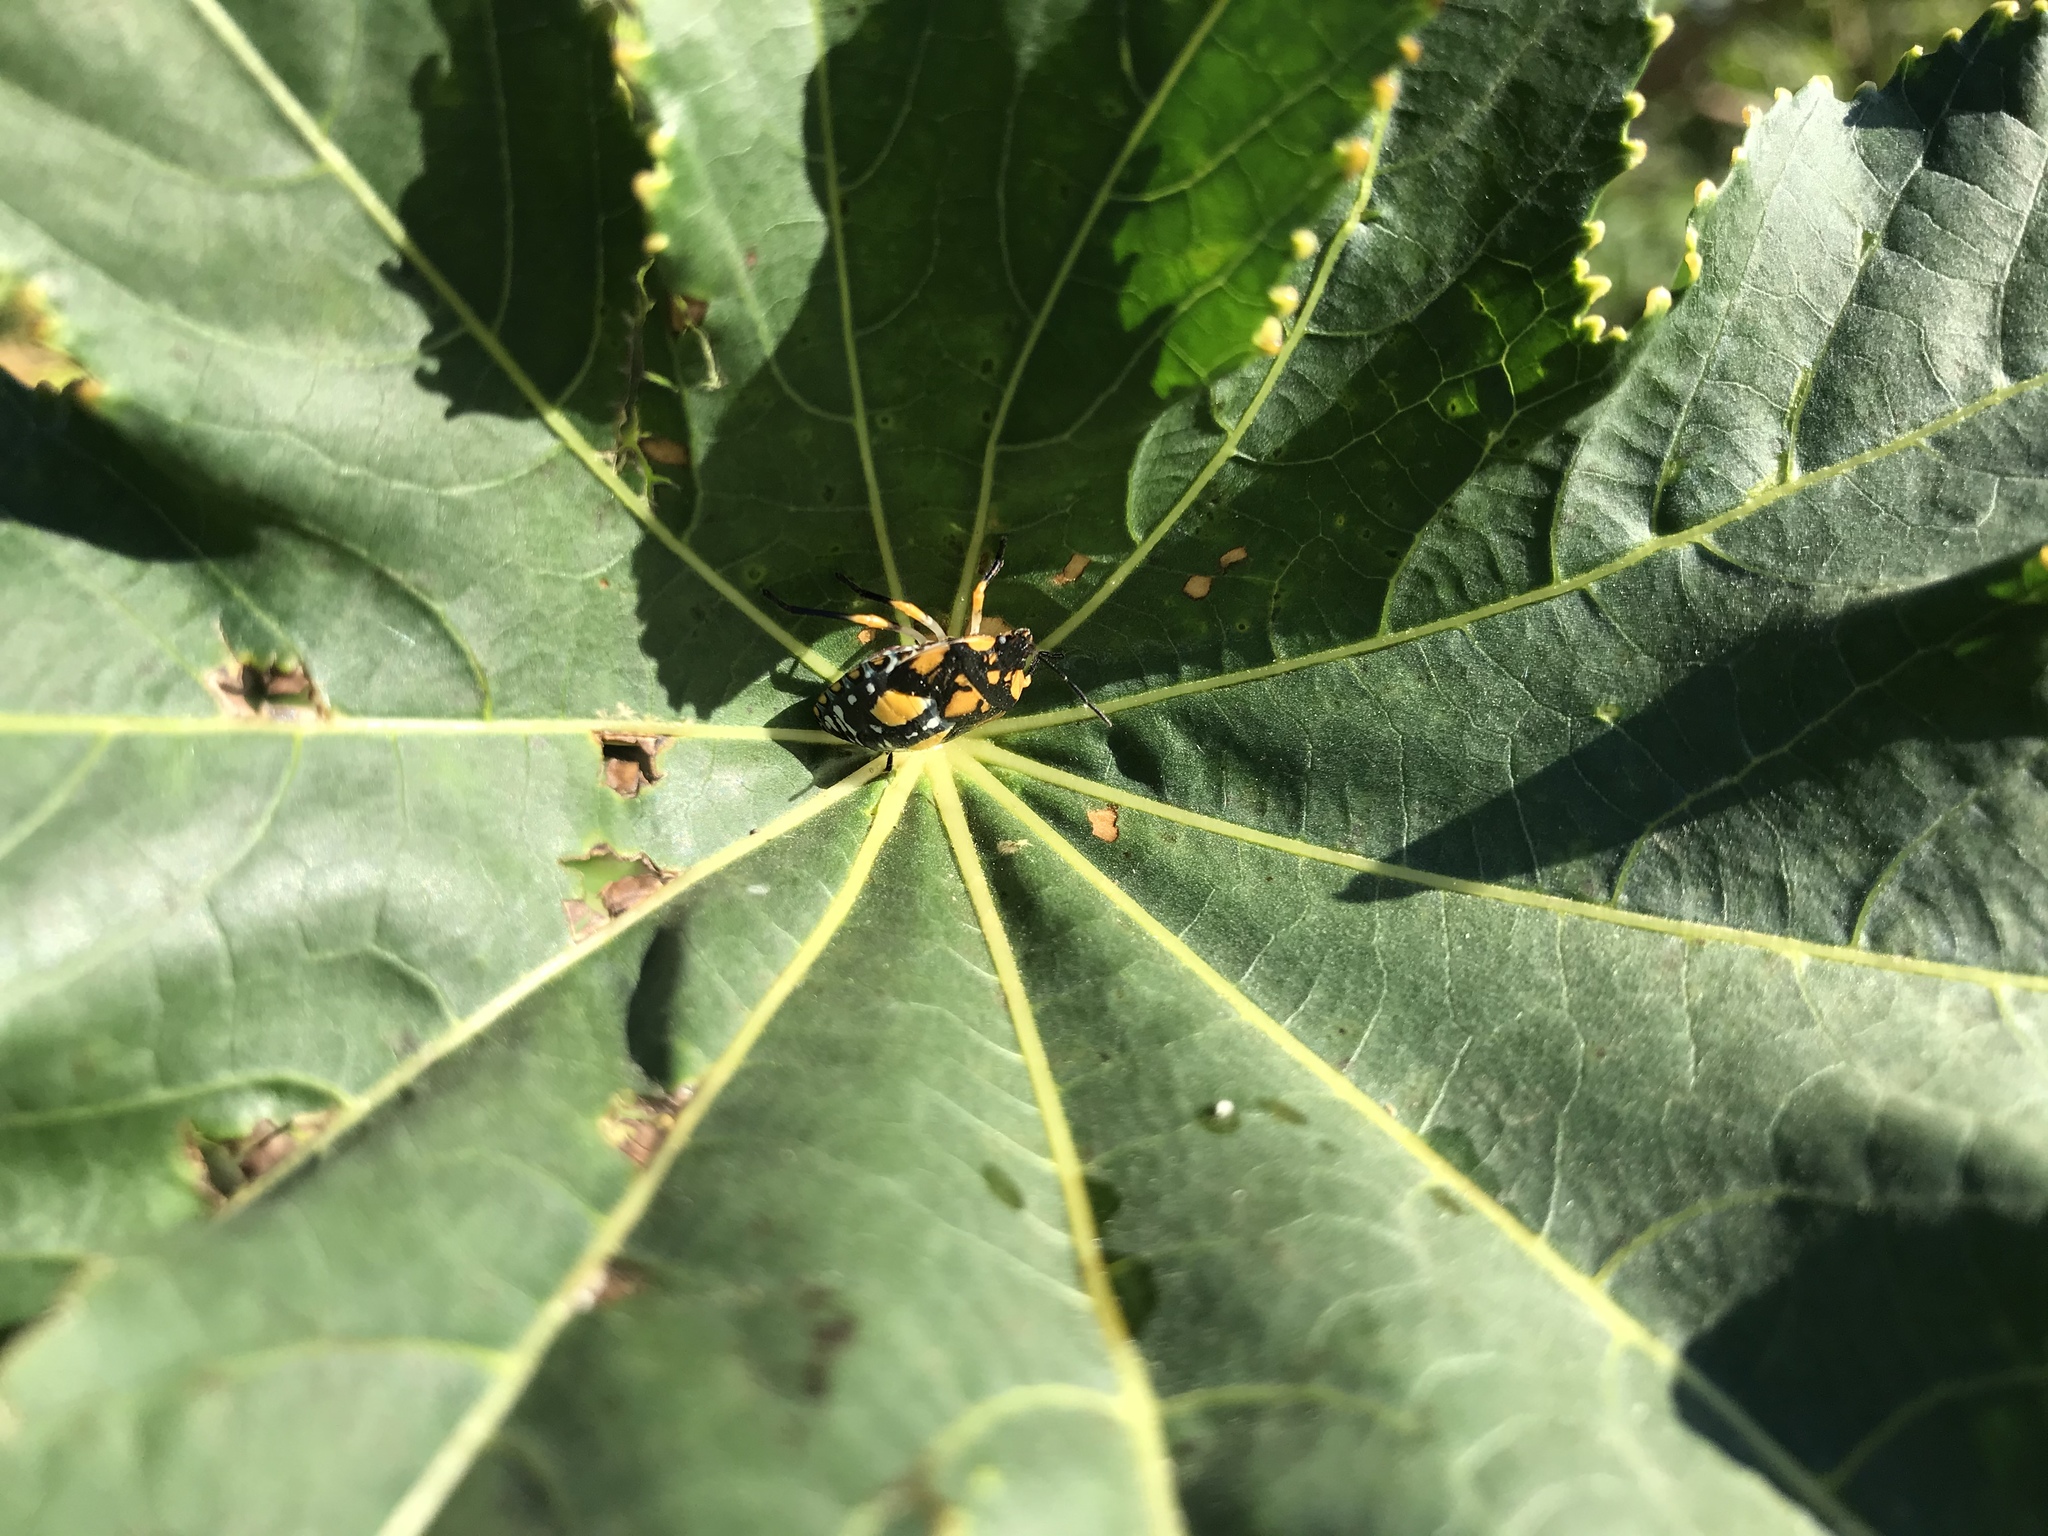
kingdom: Animalia
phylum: Arthropoda
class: Insecta
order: Hemiptera
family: Pentatomidae
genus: Chinavia
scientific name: Chinavia
